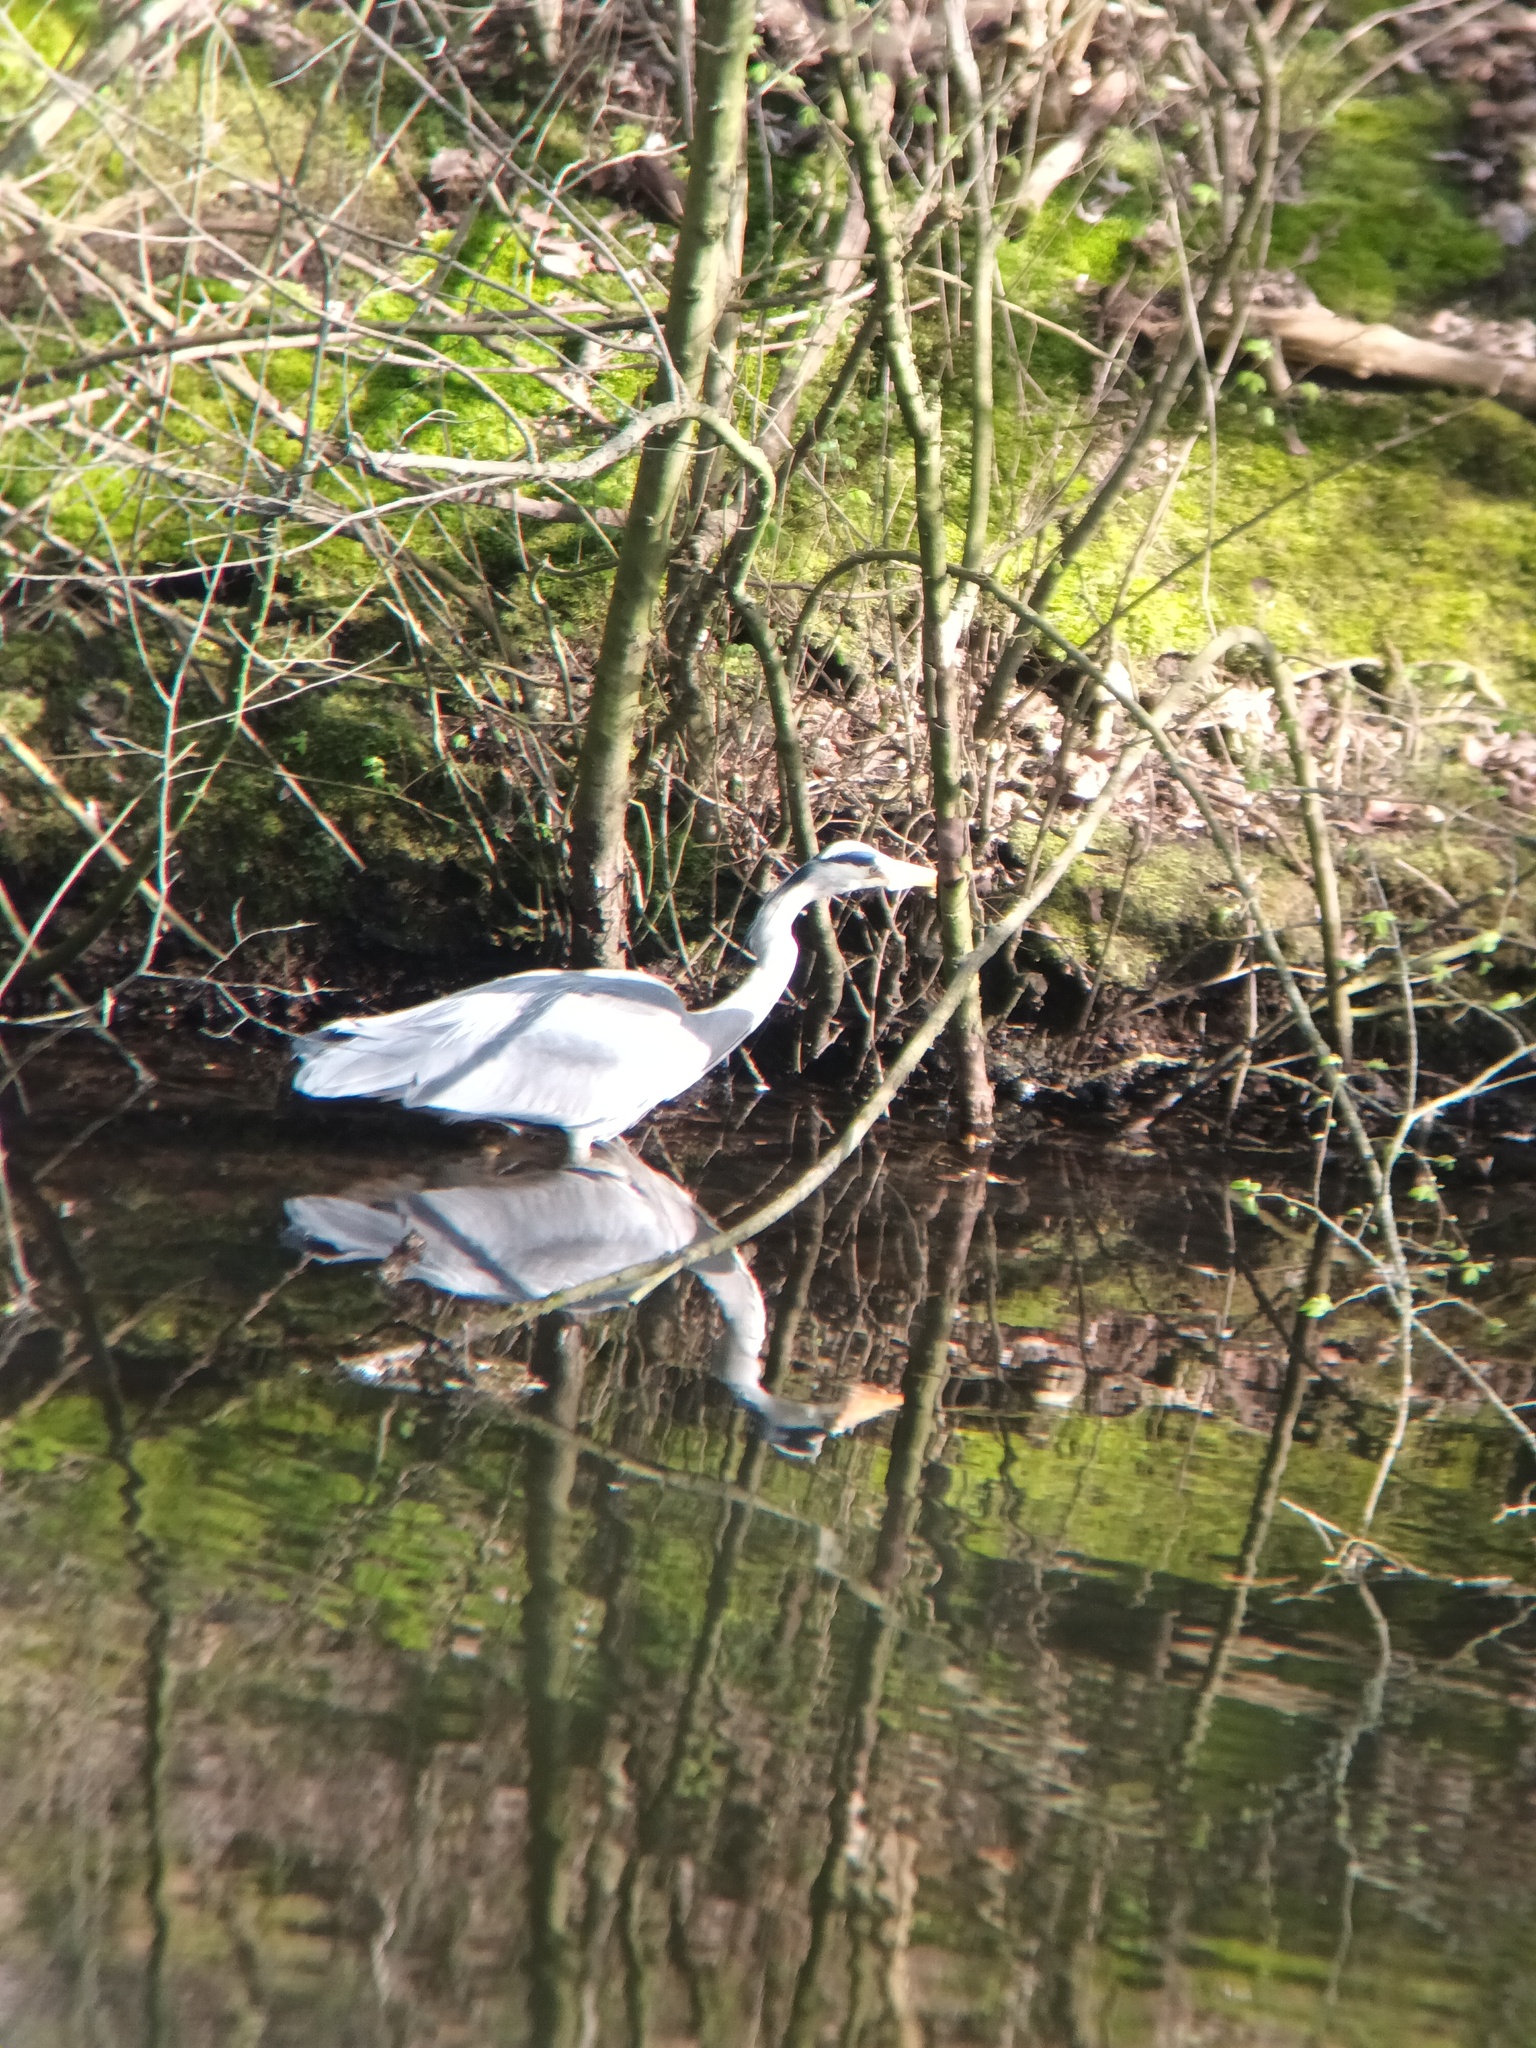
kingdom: Animalia
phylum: Chordata
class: Aves
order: Pelecaniformes
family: Ardeidae
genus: Ardea
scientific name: Ardea cinerea
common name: Grey heron
